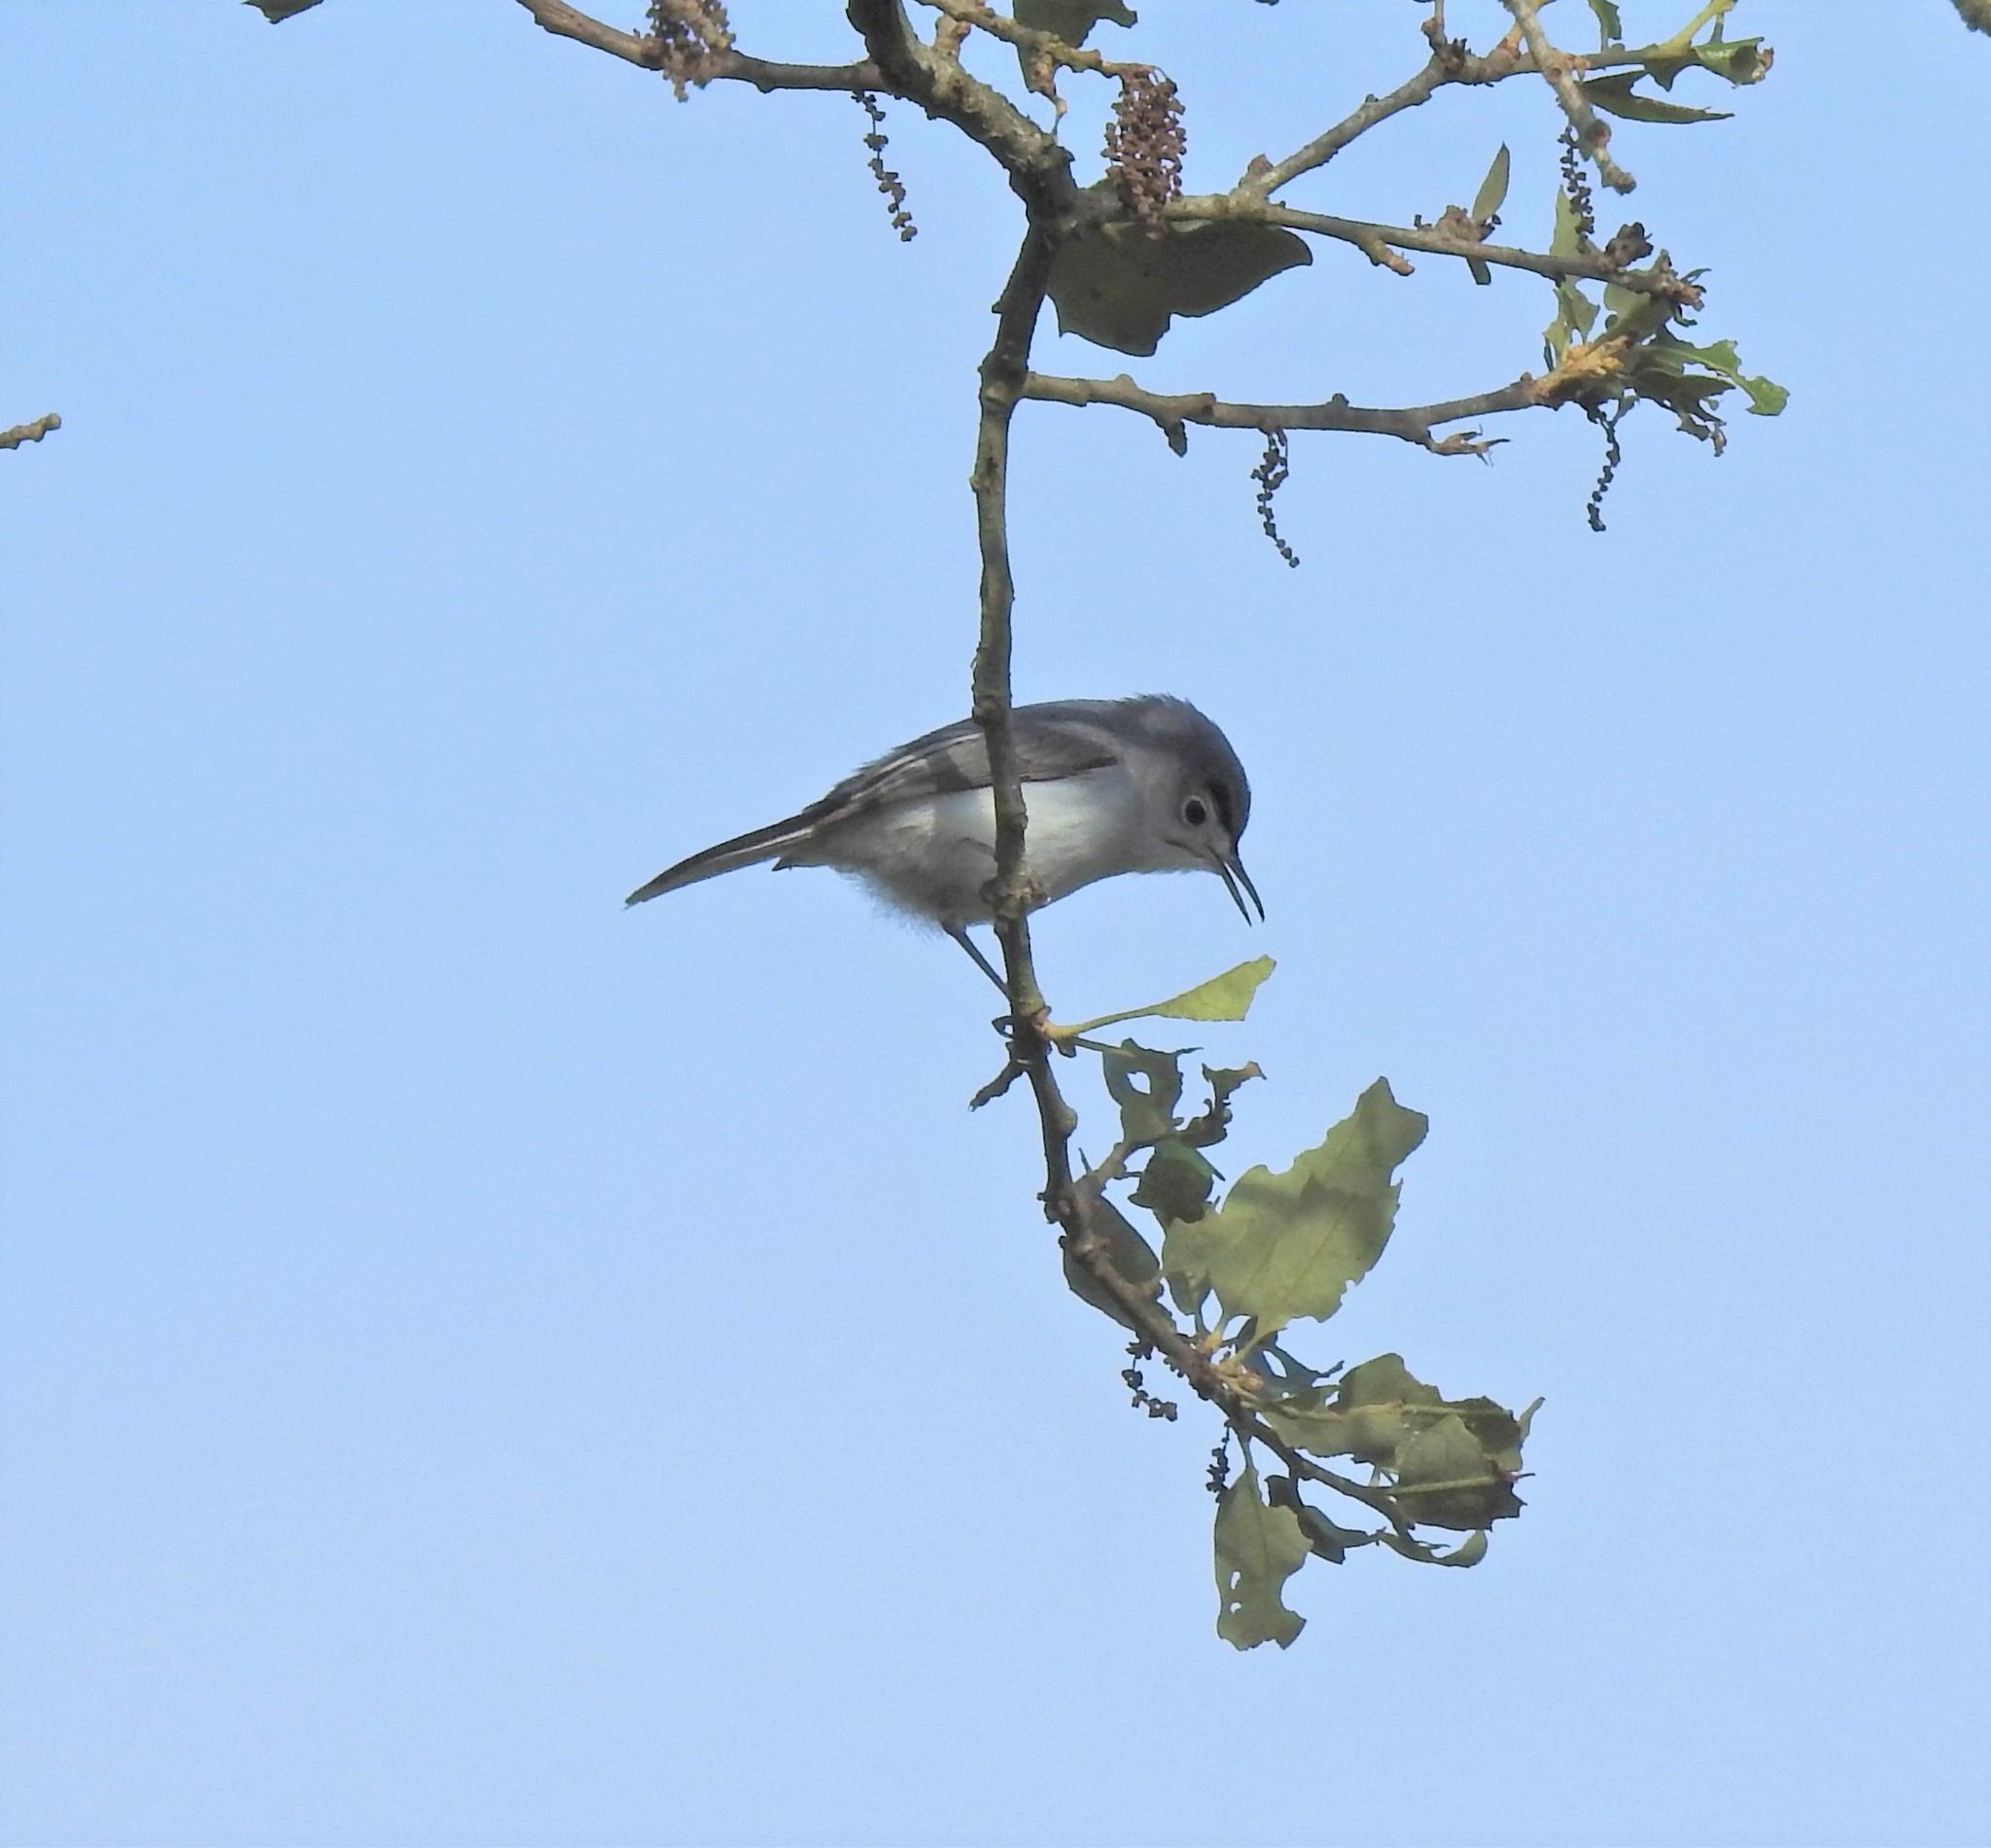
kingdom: Animalia
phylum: Chordata
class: Aves
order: Passeriformes
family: Polioptilidae
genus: Polioptila
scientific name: Polioptila caerulea
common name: Blue-gray gnatcatcher
